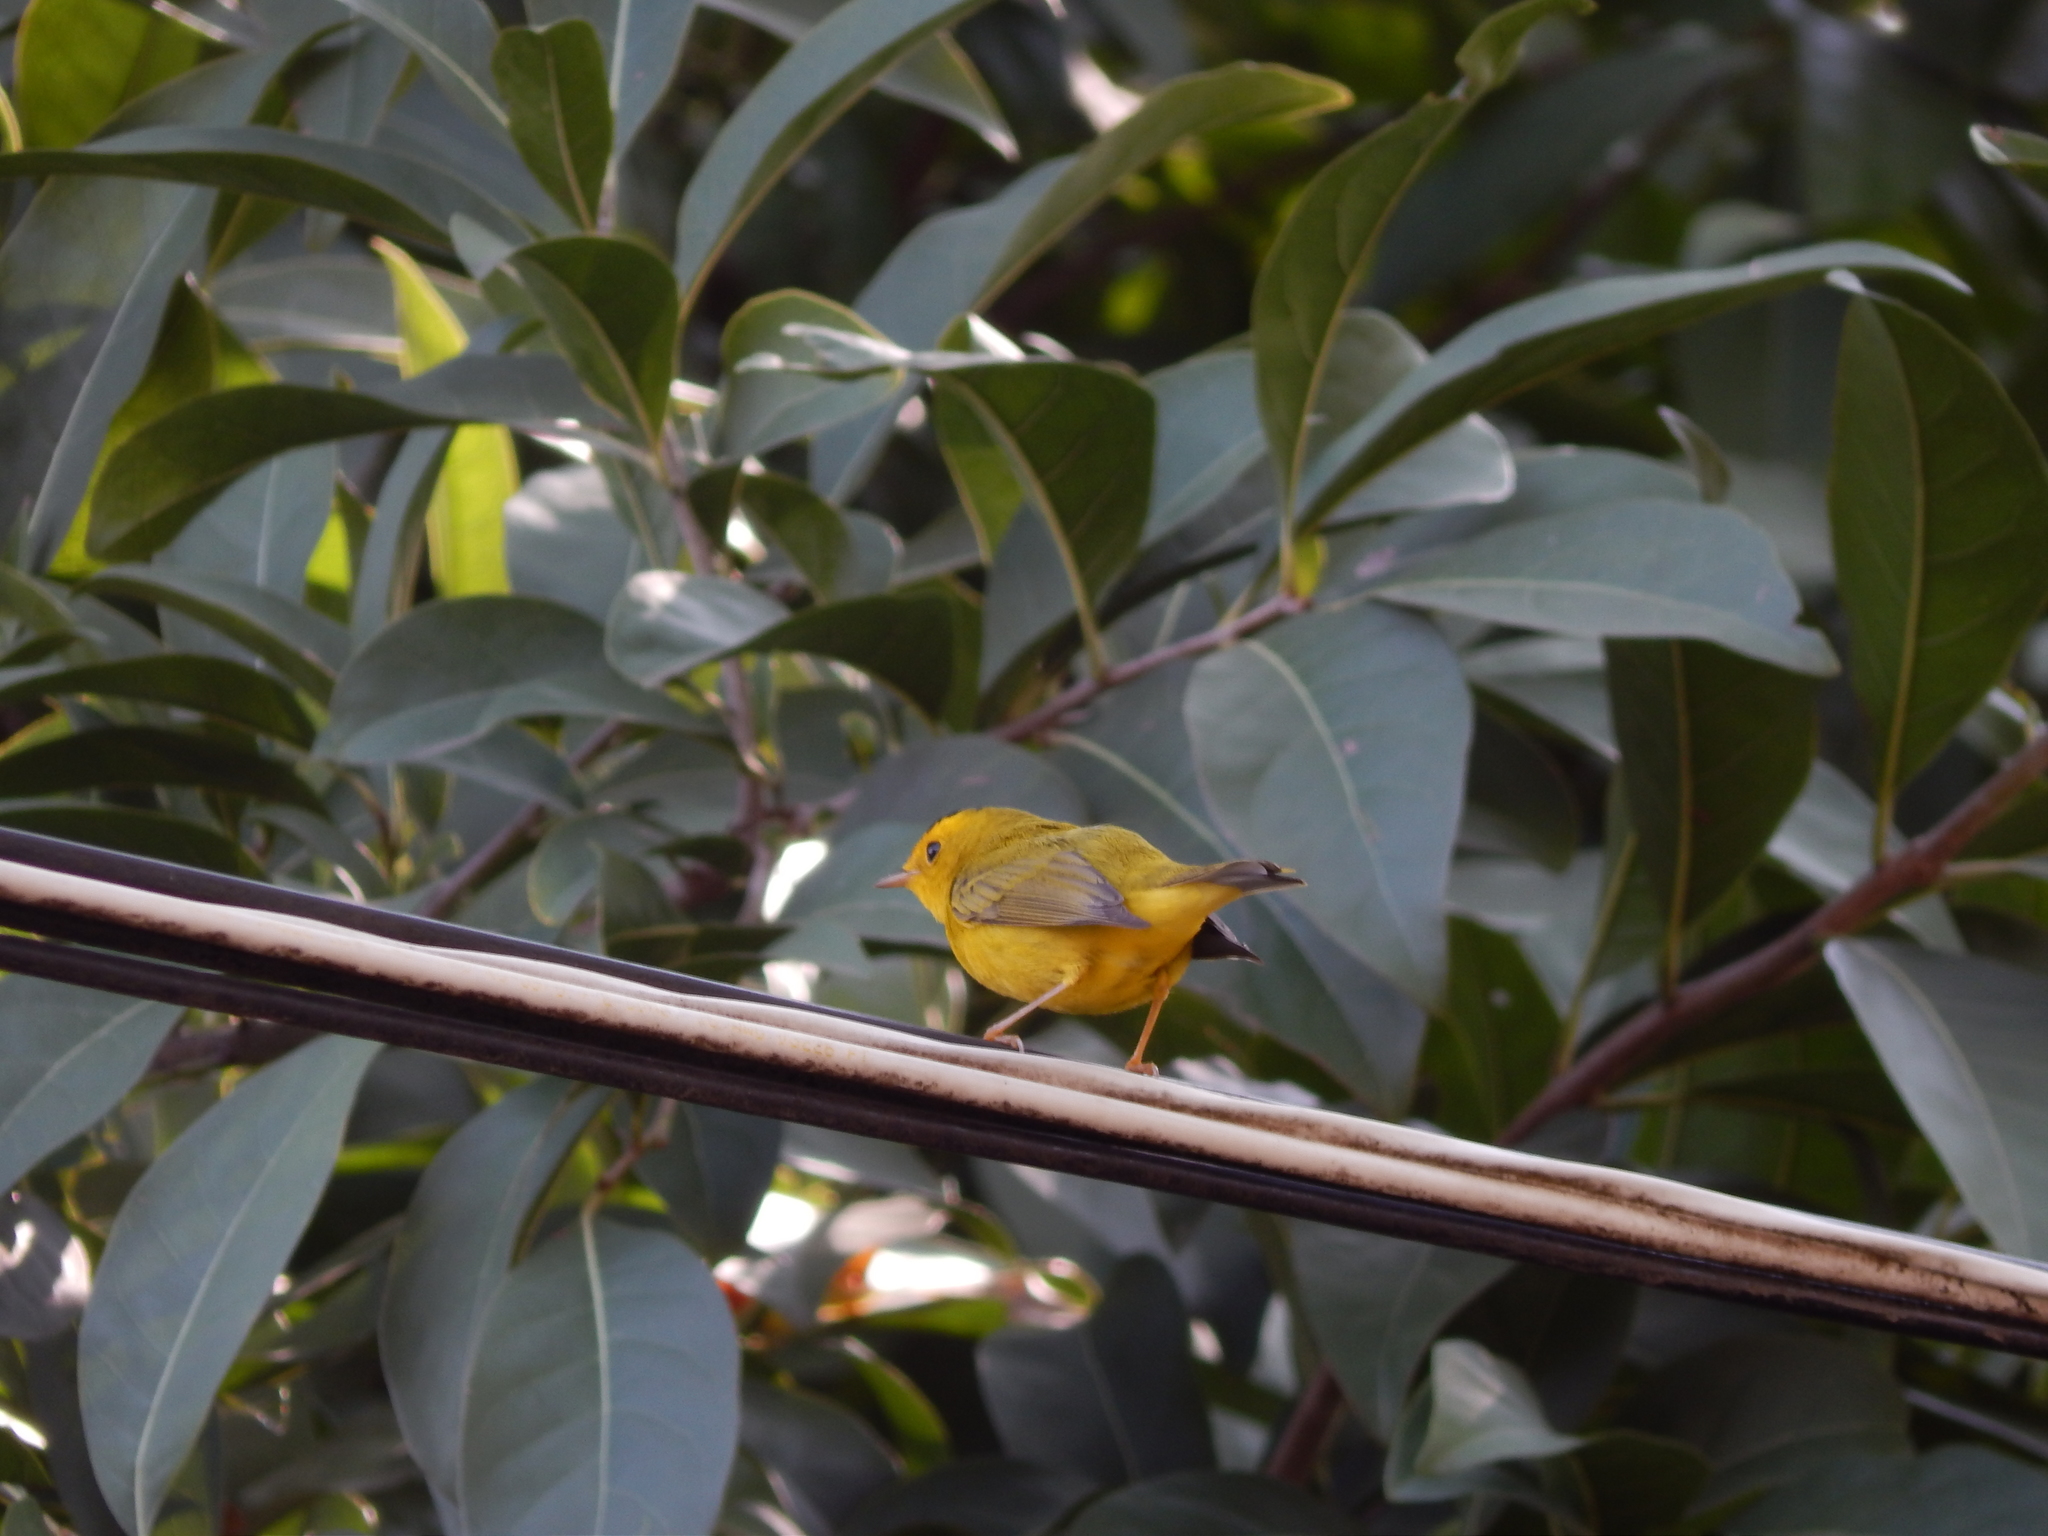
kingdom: Animalia
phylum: Chordata
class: Aves
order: Passeriformes
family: Parulidae
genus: Cardellina
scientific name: Cardellina pusilla
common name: Wilson's warbler
